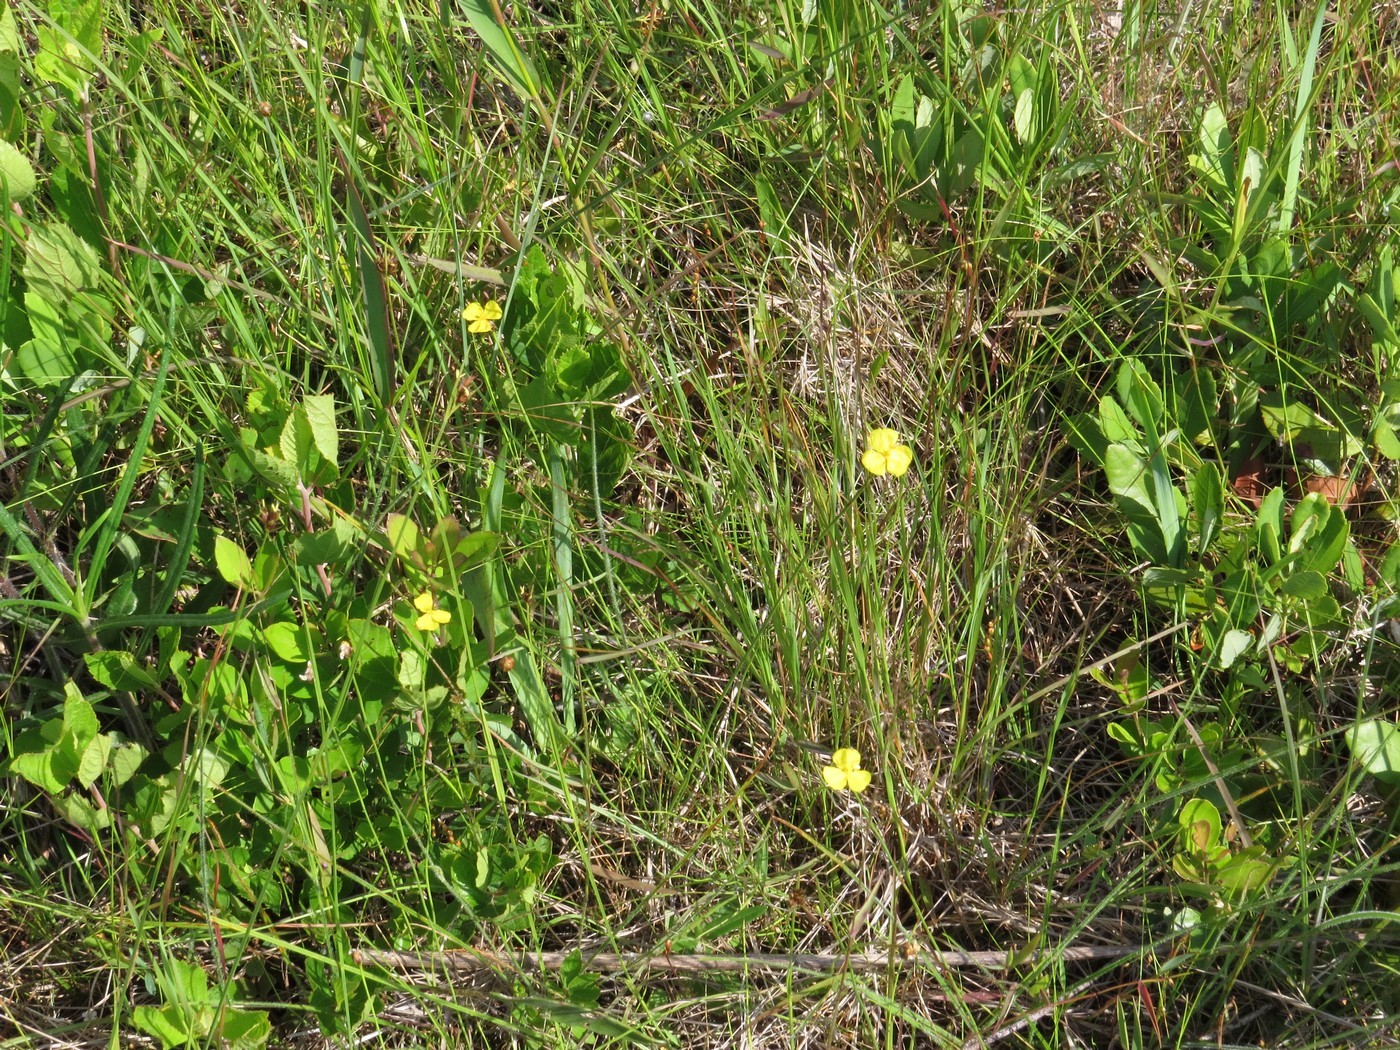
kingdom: Plantae
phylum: Tracheophyta
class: Liliopsida
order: Poales
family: Xyridaceae
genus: Xyris
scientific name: Xyris baldwiniana
